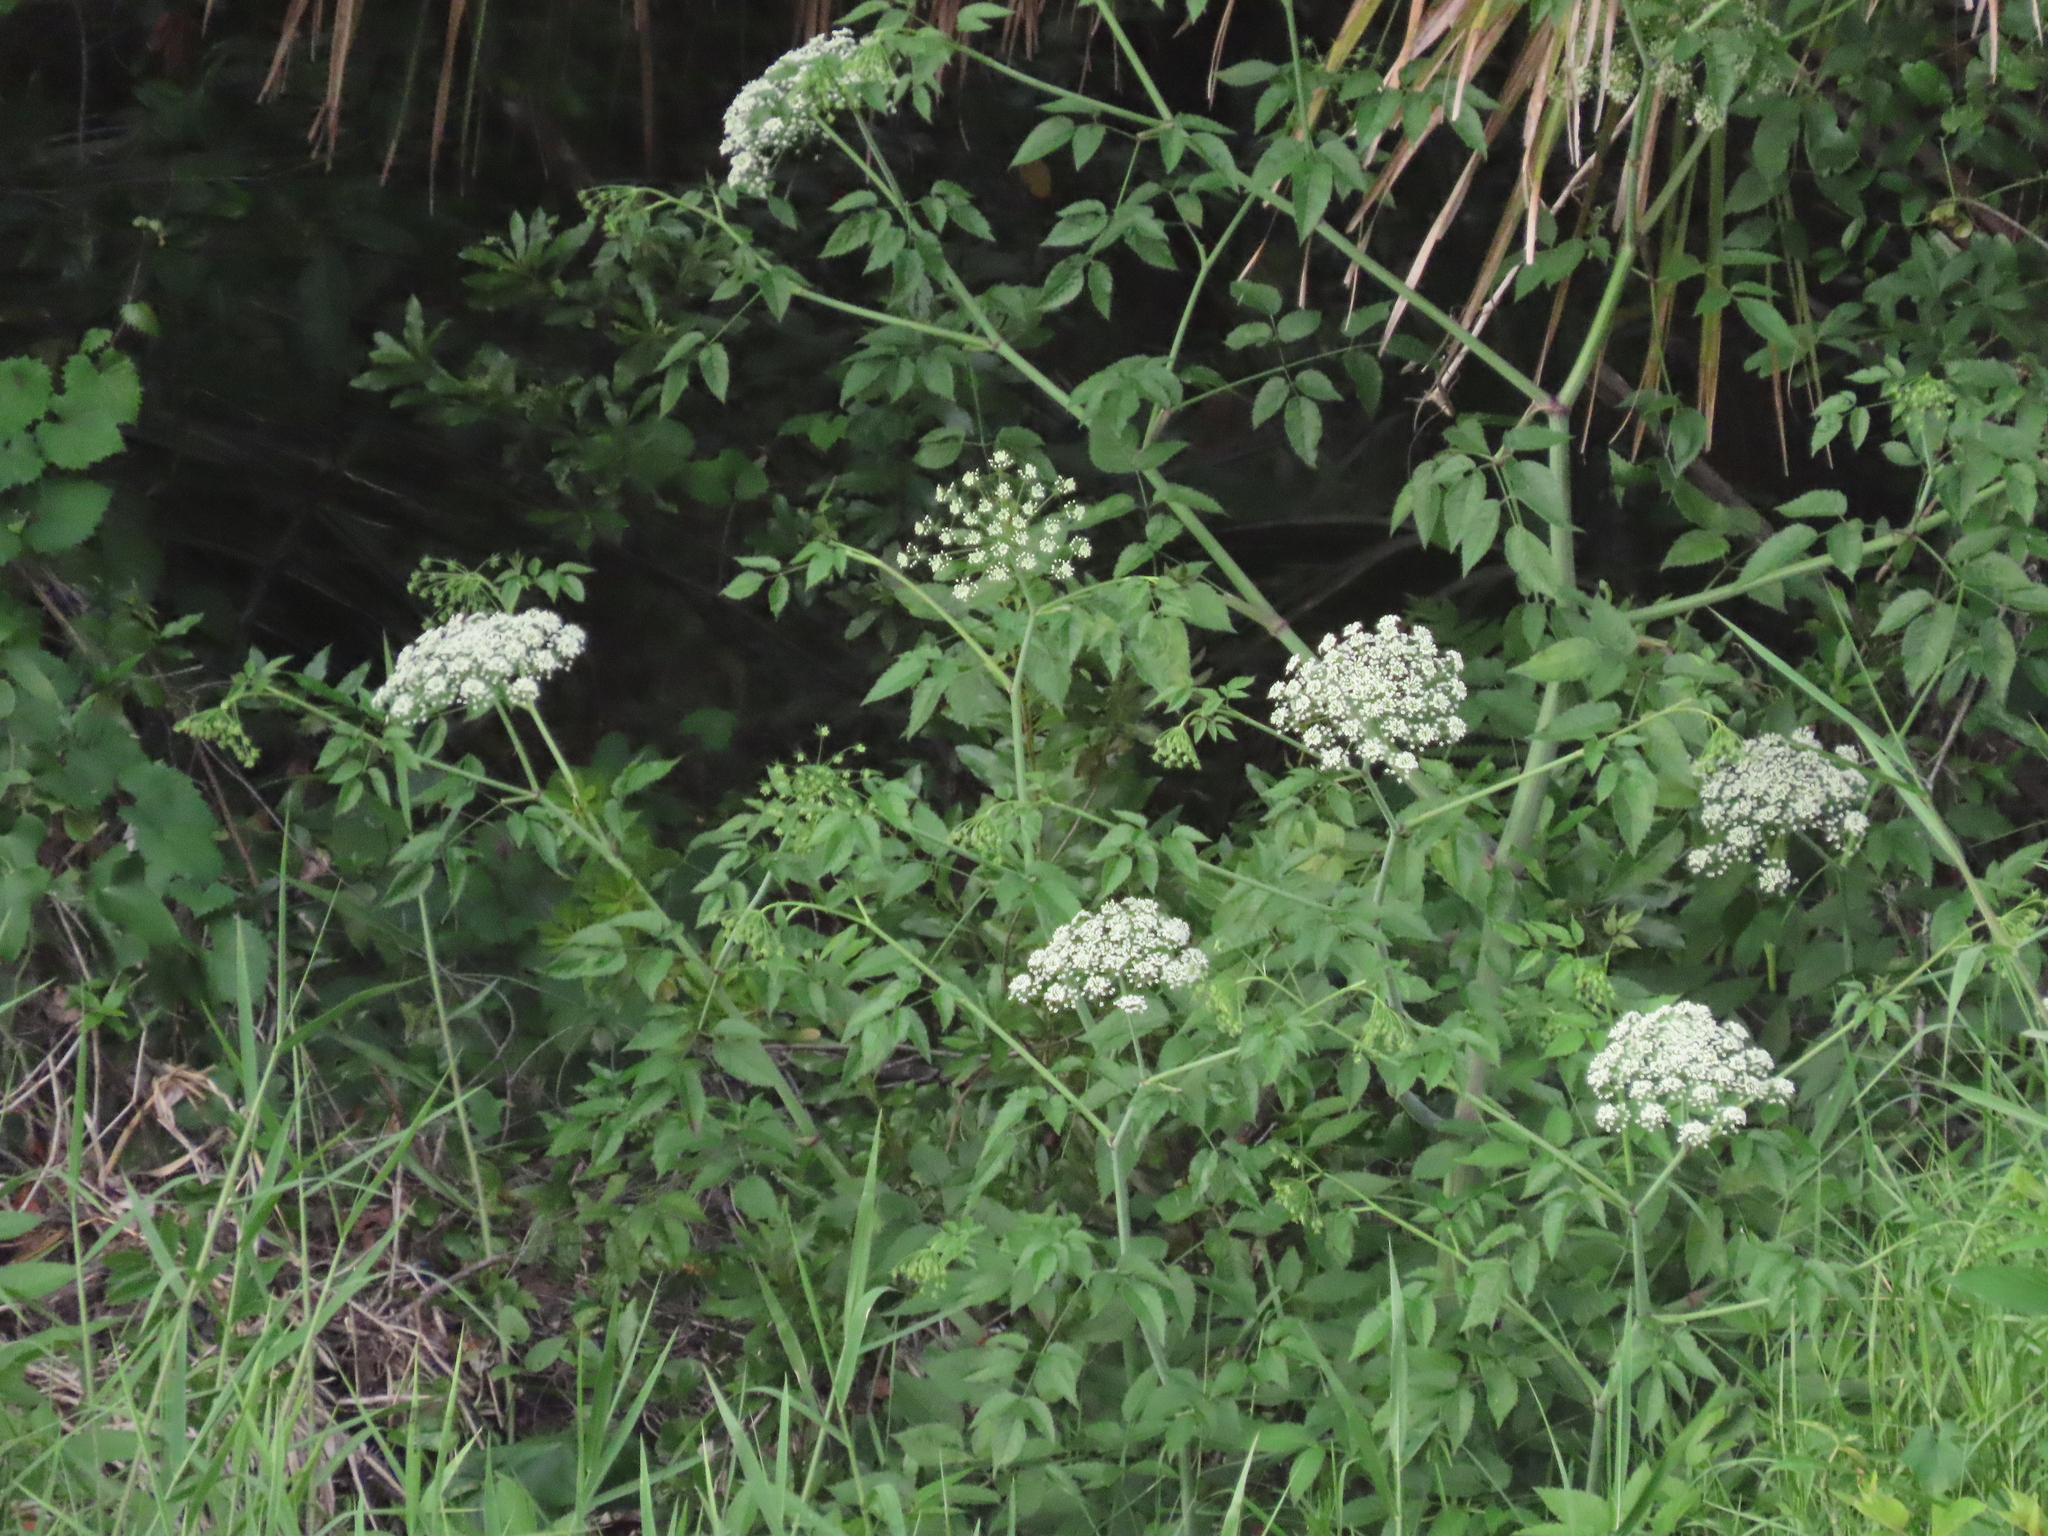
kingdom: Plantae
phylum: Tracheophyta
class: Magnoliopsida
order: Apiales
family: Apiaceae
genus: Cicuta
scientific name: Cicuta maculata
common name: Spotted cowbane
